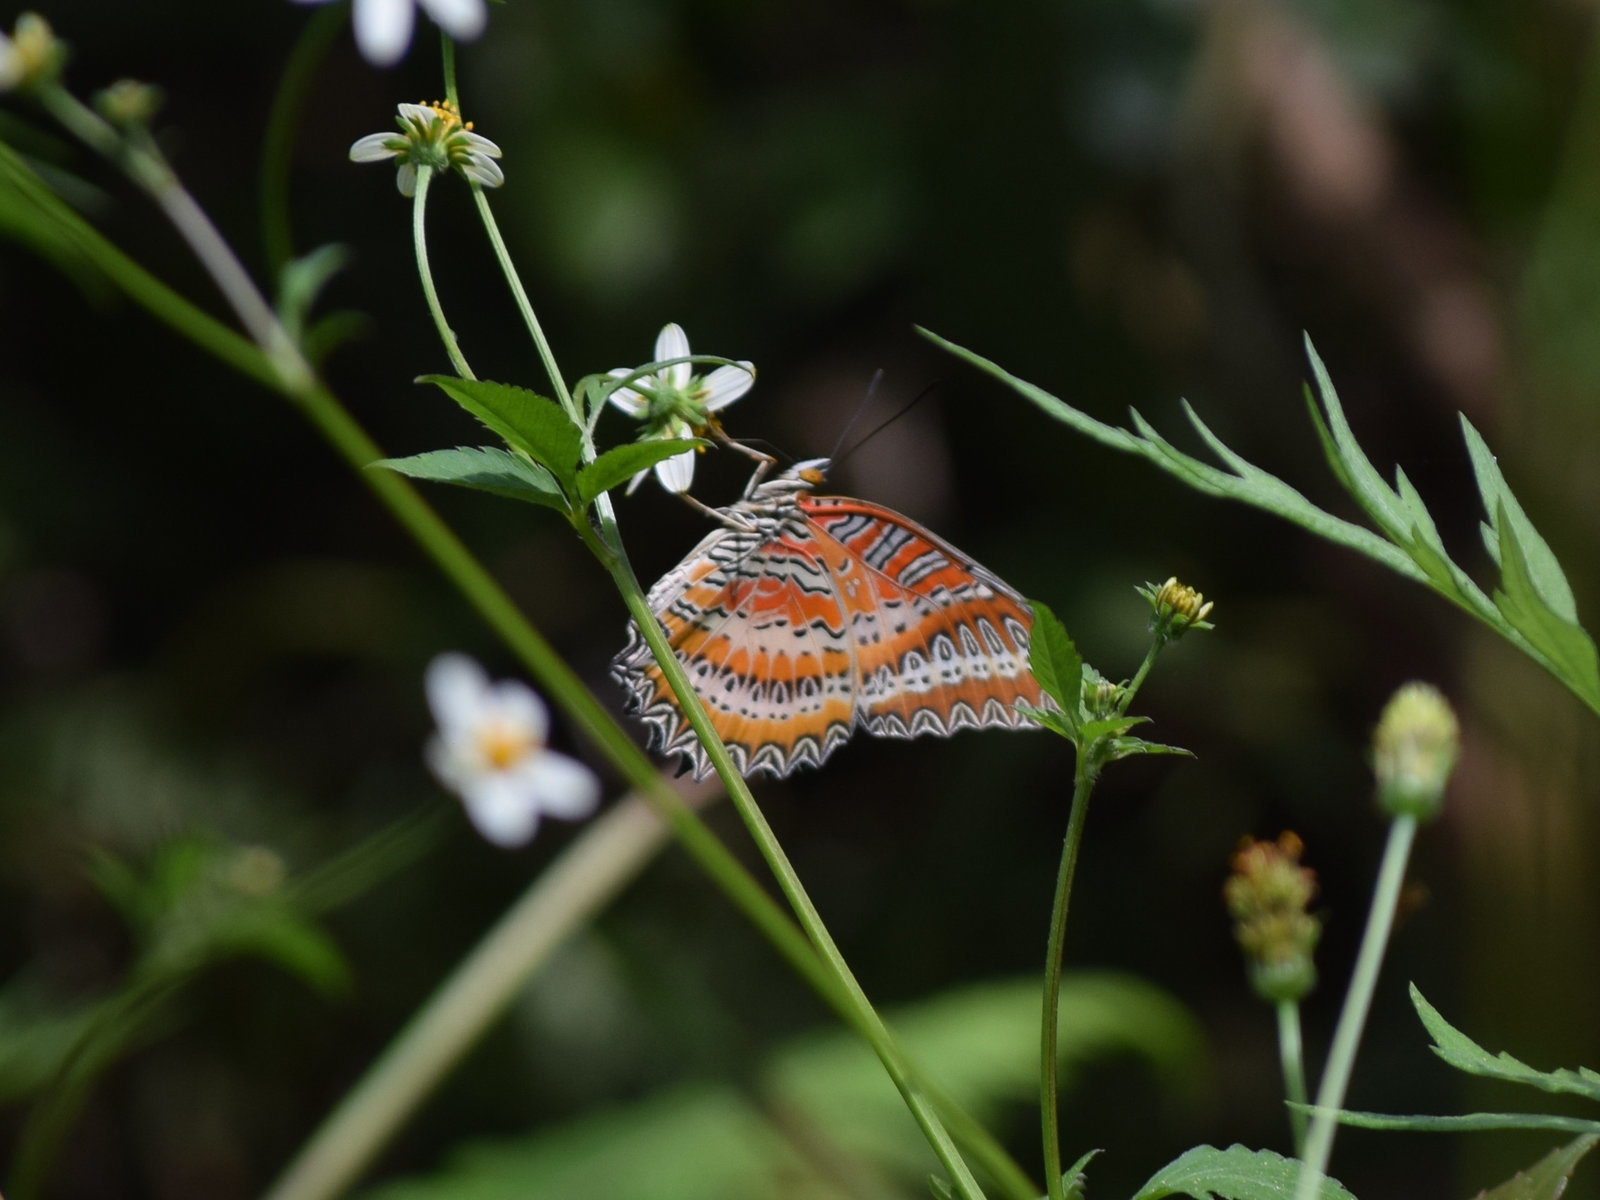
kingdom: Animalia
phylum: Arthropoda
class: Insecta
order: Lepidoptera
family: Nymphalidae
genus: Cethosia
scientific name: Cethosia biblis
